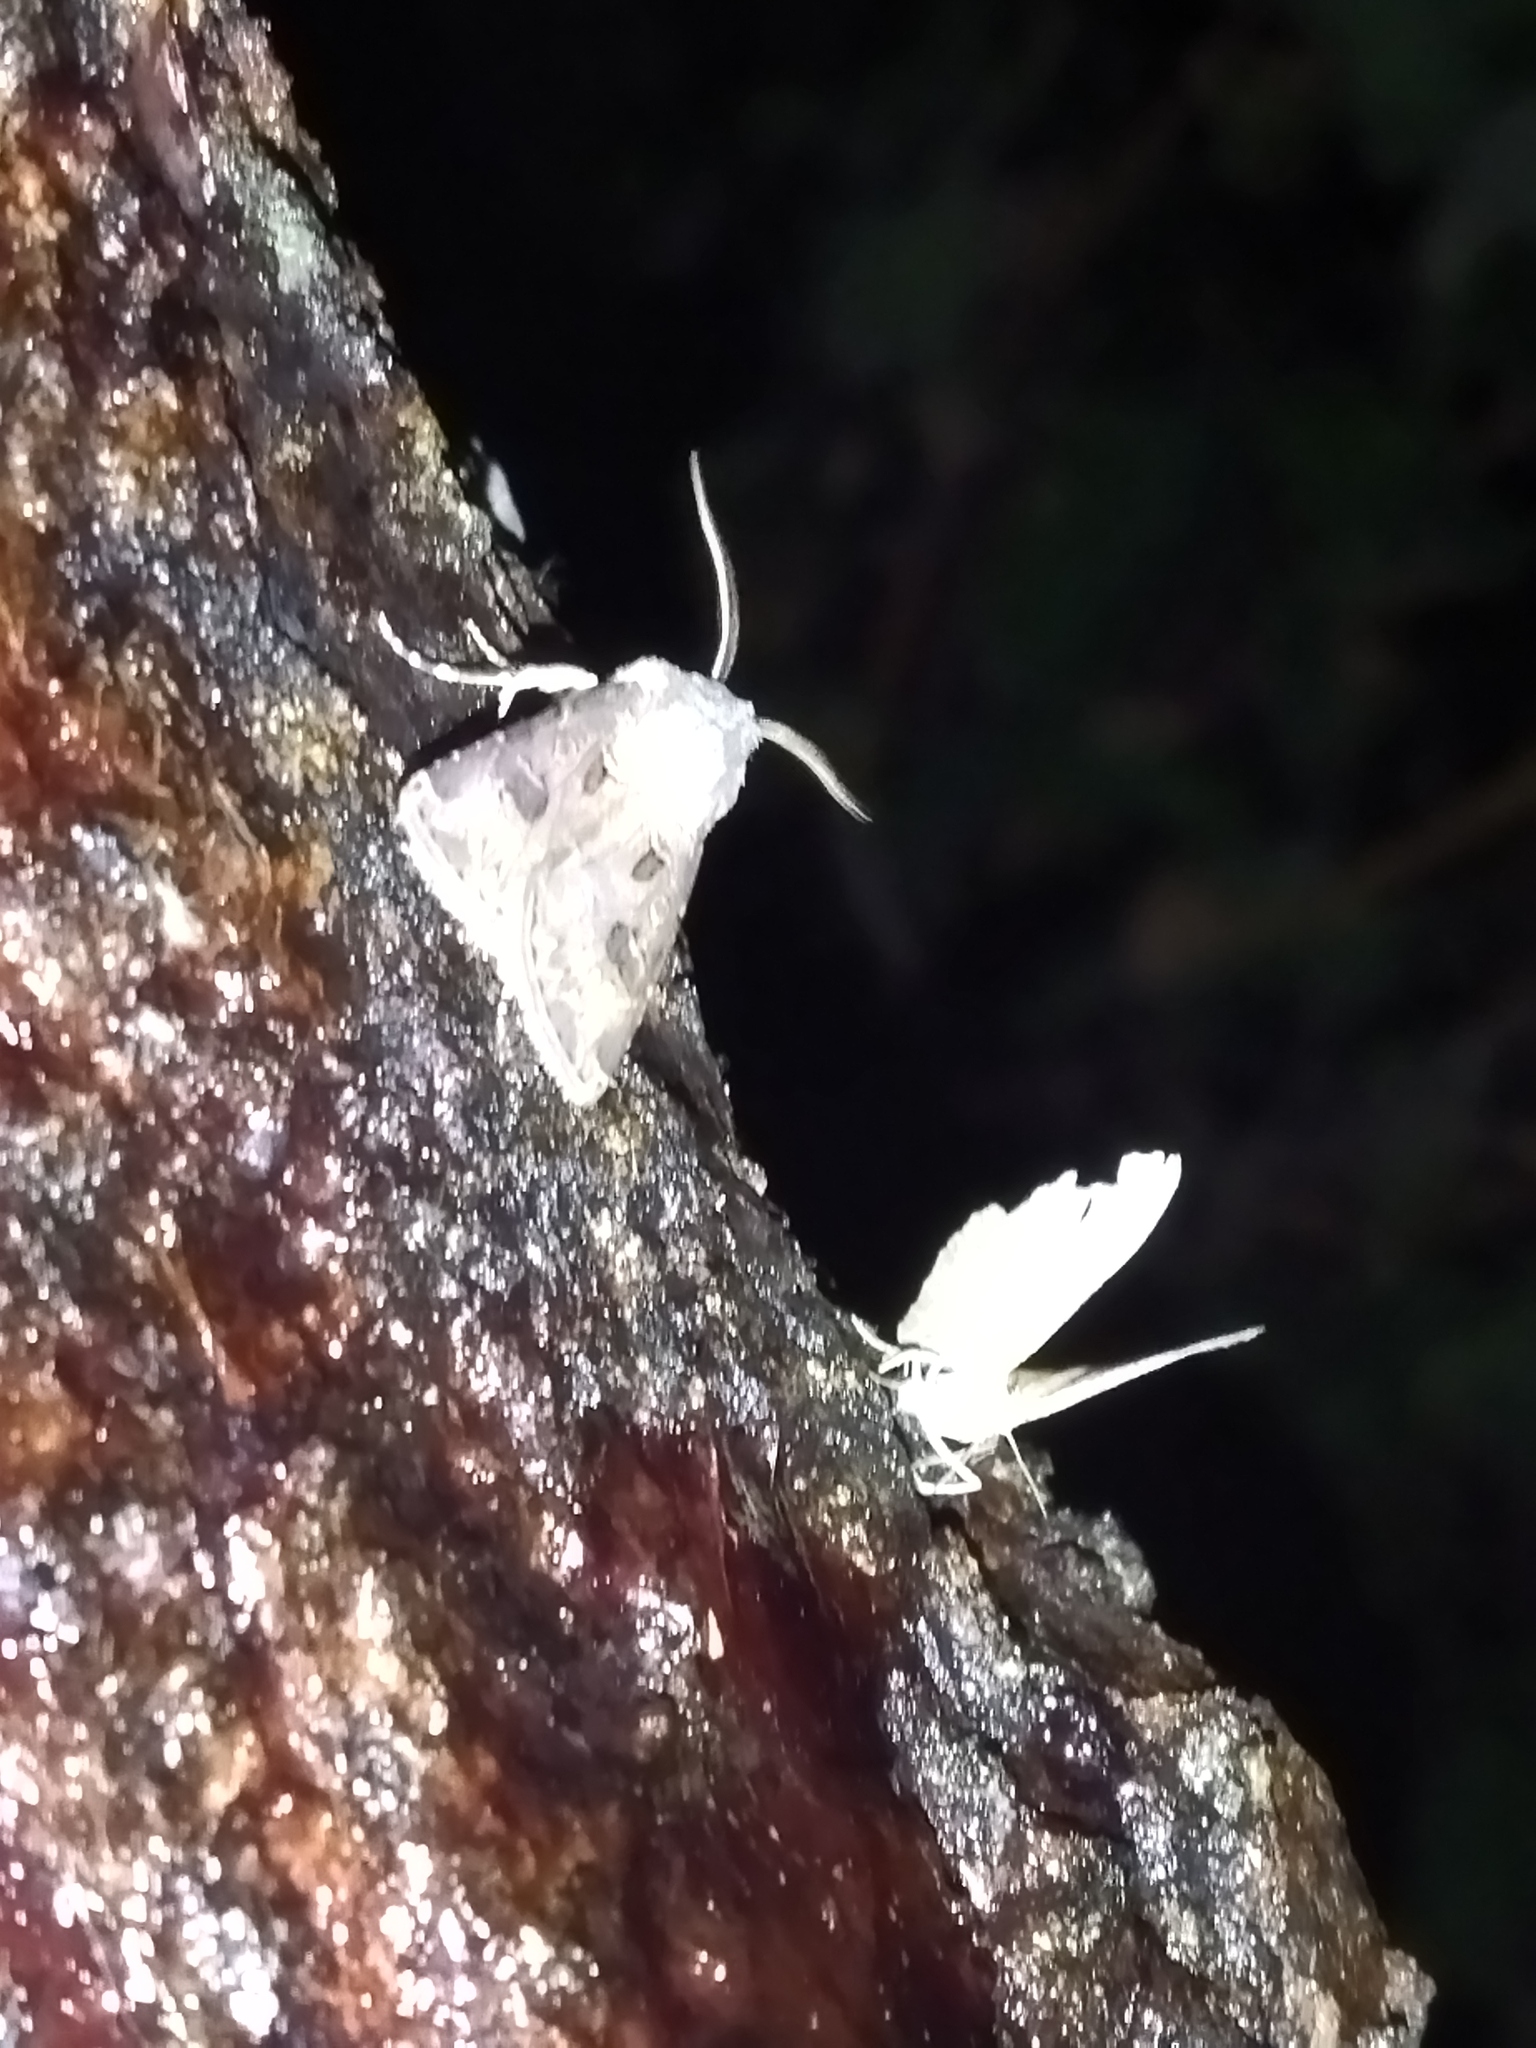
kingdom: Animalia
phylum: Arthropoda
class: Insecta
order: Lepidoptera
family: Noctuidae
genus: Agrotis
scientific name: Agrotis bigramma
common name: Great dart
